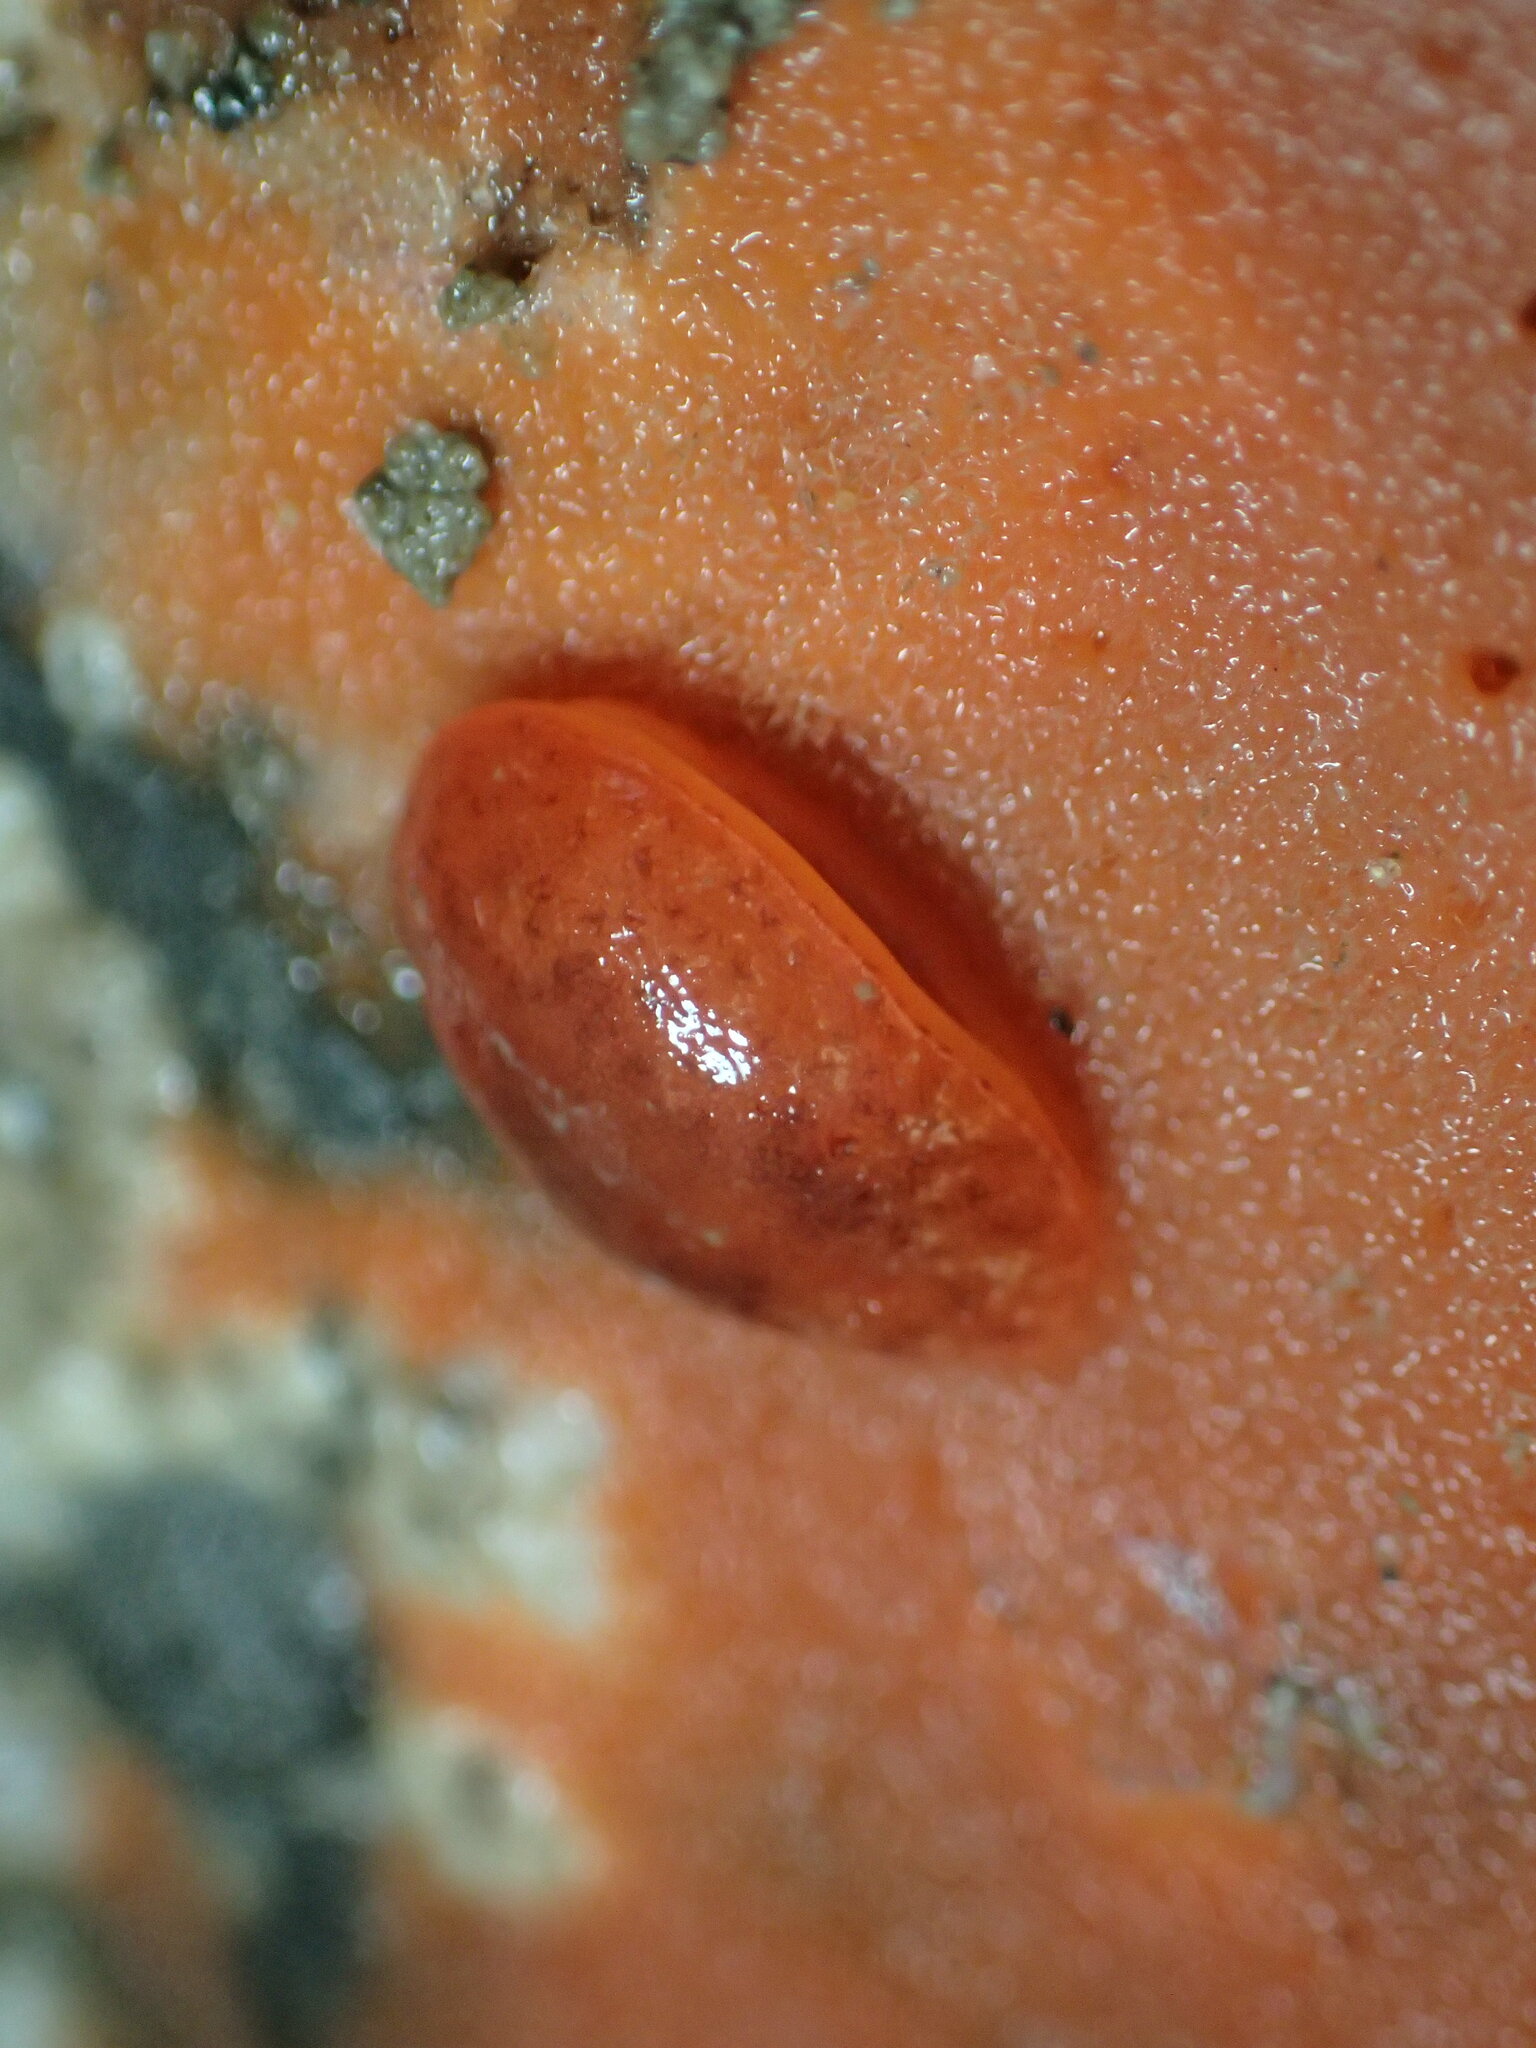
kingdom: Animalia
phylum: Mollusca
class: Gastropoda
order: Nudibranchia
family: Discodorididae
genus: Rostanga
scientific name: Rostanga pulchra
